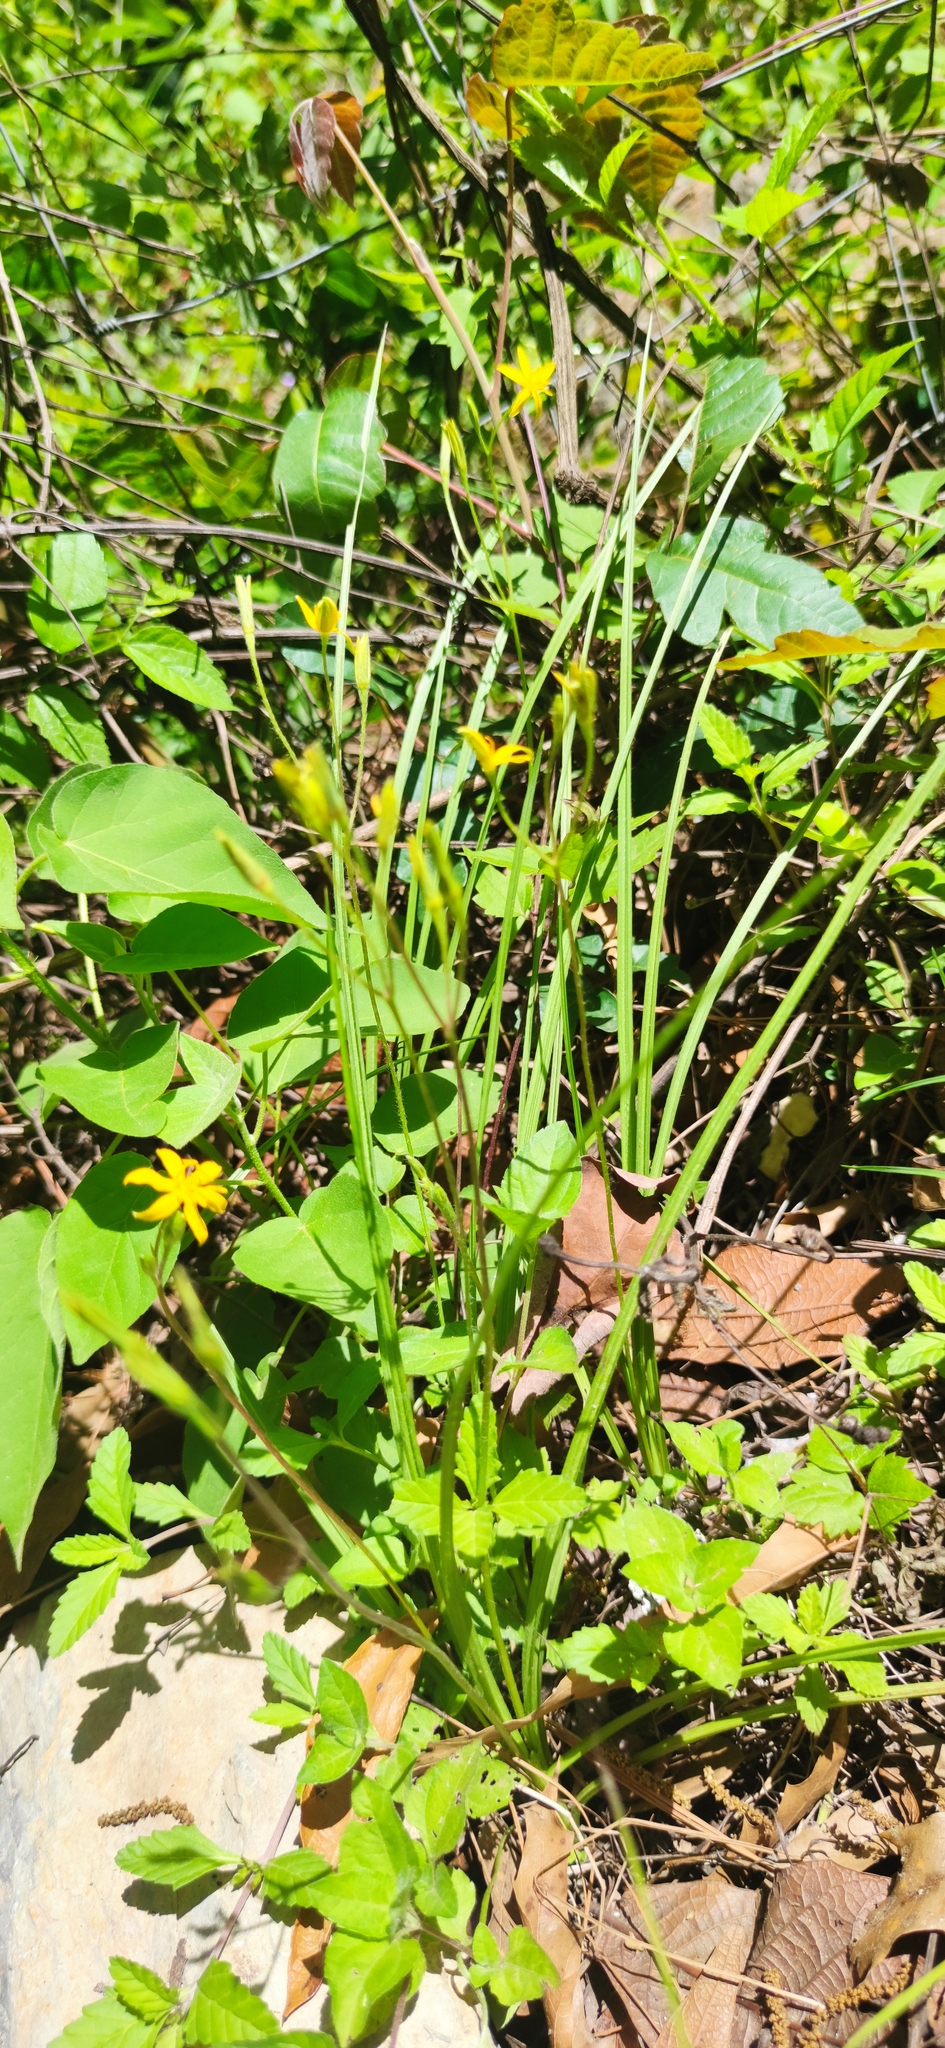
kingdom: Plantae
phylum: Tracheophyta
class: Liliopsida
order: Asparagales
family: Hypoxidaceae
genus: Hypoxis
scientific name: Hypoxis hirsuta
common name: Common goldstar
